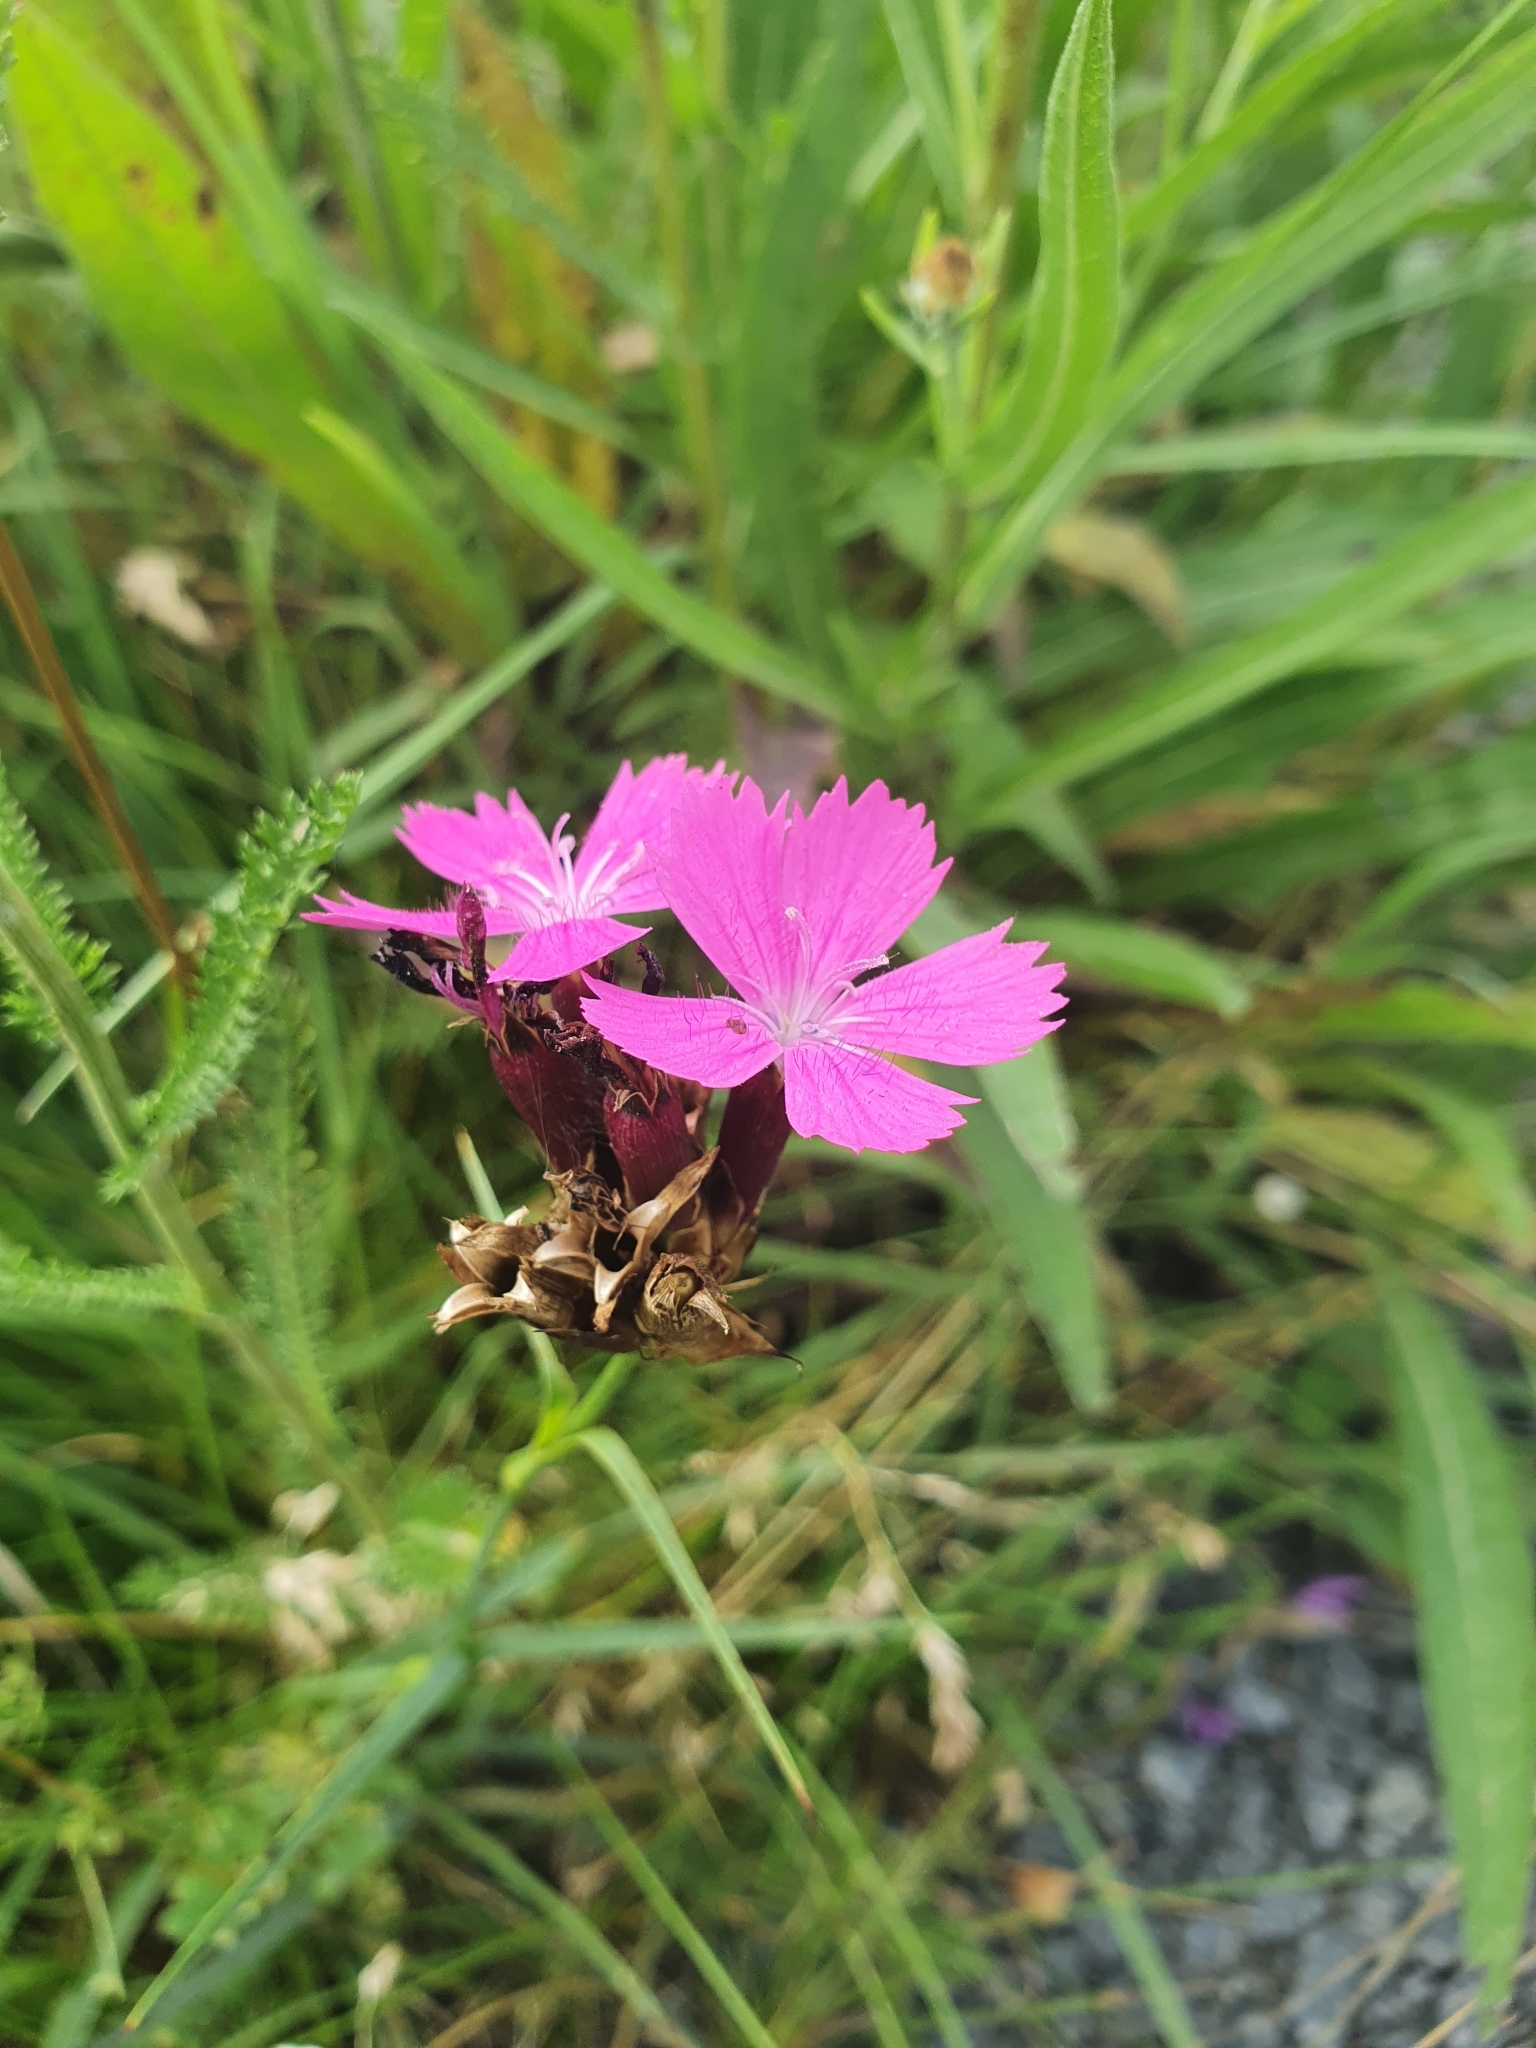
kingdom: Plantae
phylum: Tracheophyta
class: Magnoliopsida
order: Caryophyllales
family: Caryophyllaceae
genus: Dianthus
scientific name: Dianthus carthusianorum
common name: Carthusian pink
